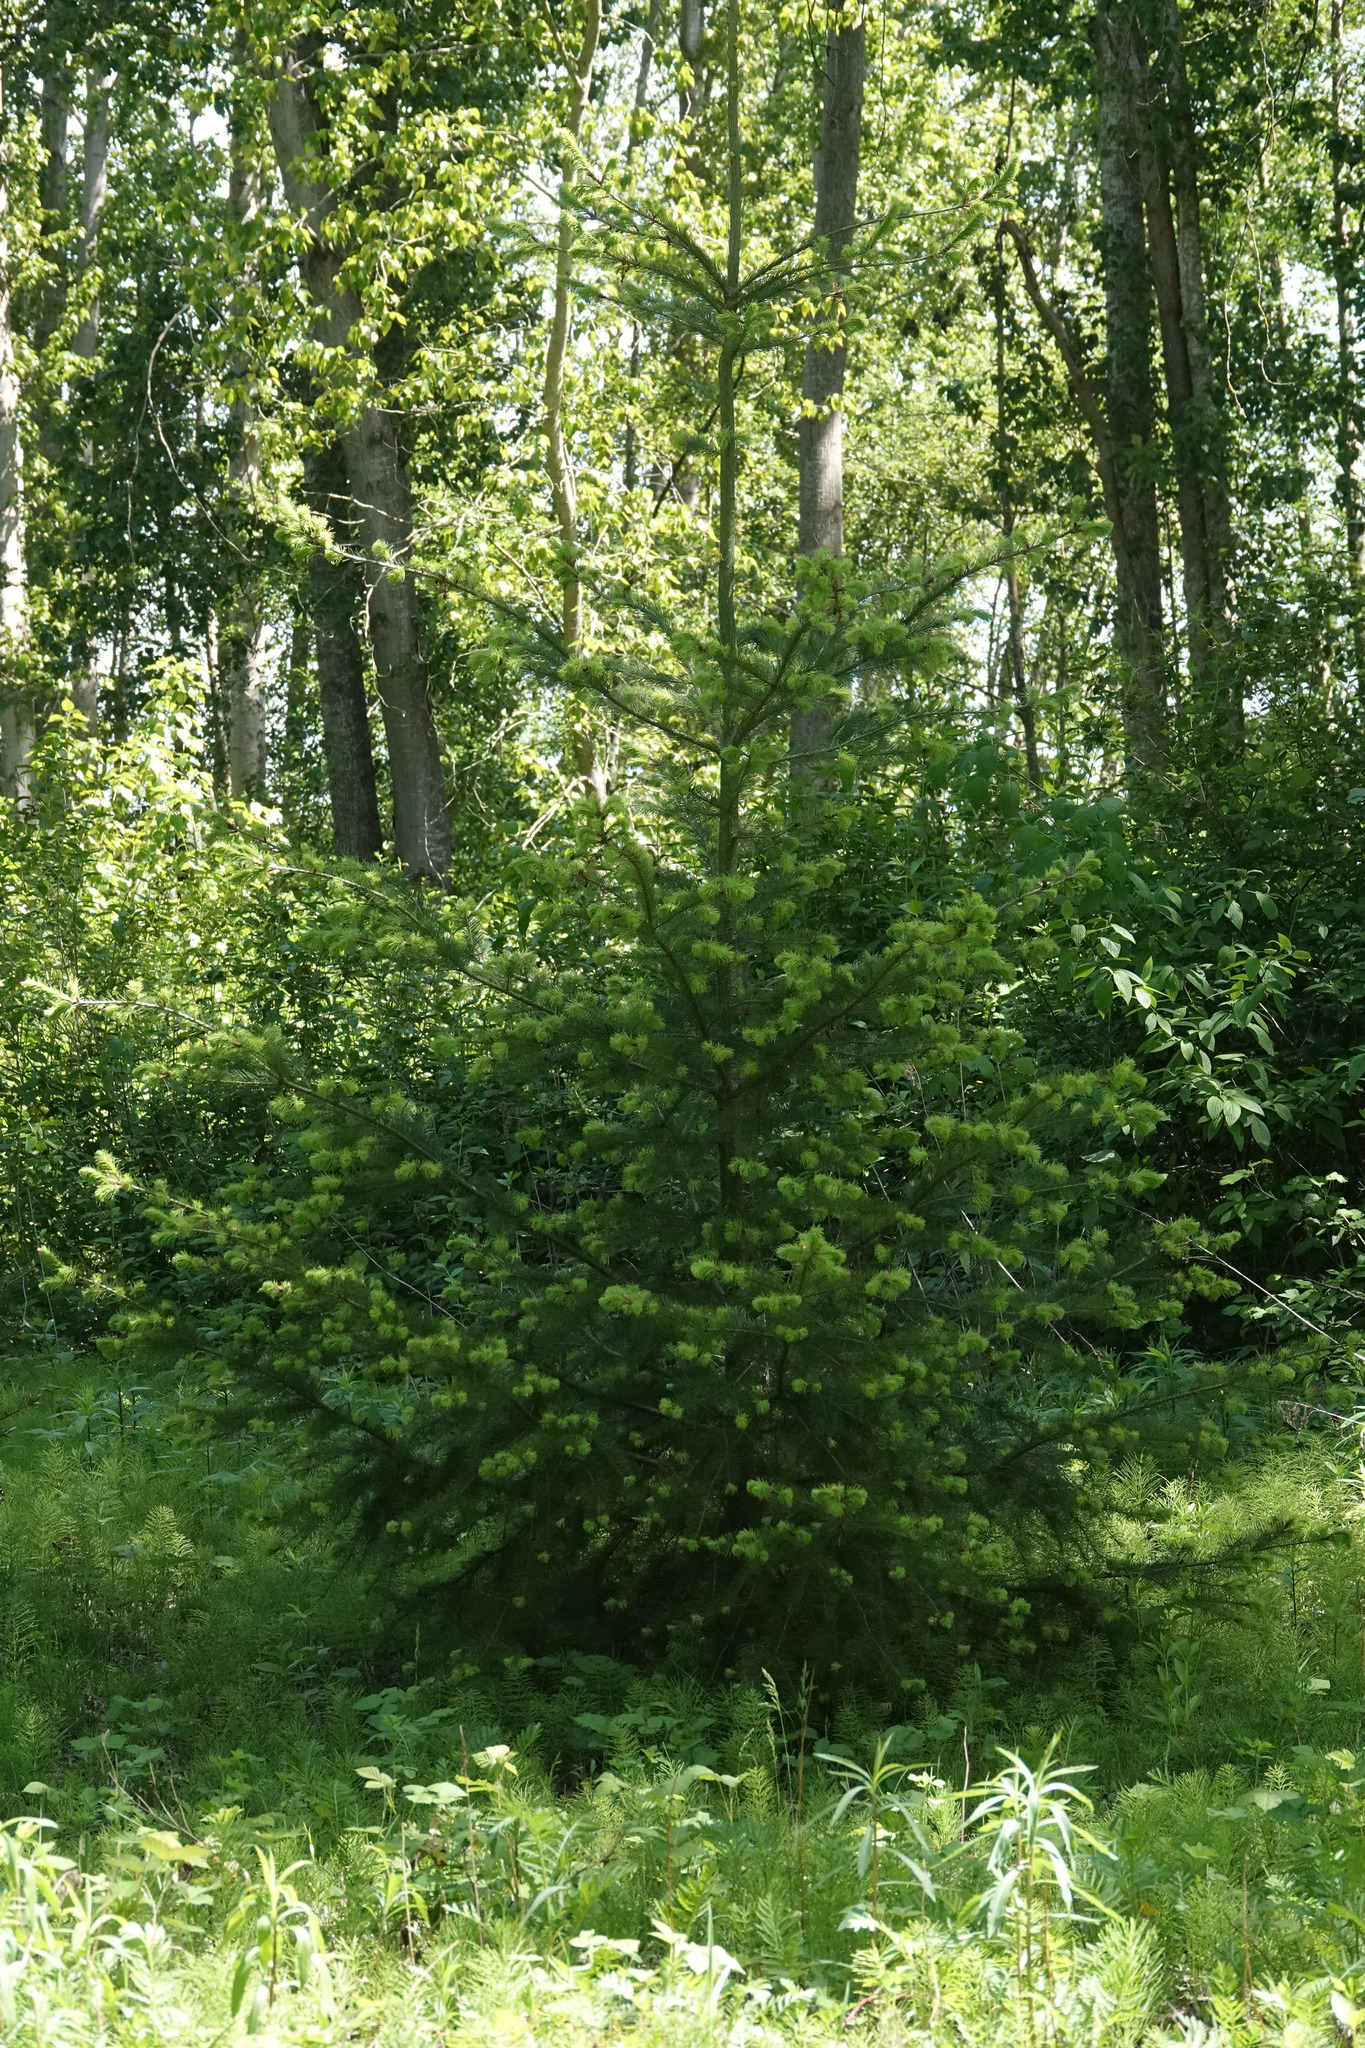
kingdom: Plantae
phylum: Tracheophyta
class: Pinopsida
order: Pinales
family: Pinaceae
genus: Pseudotsuga
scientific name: Pseudotsuga menziesii
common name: Douglas fir
